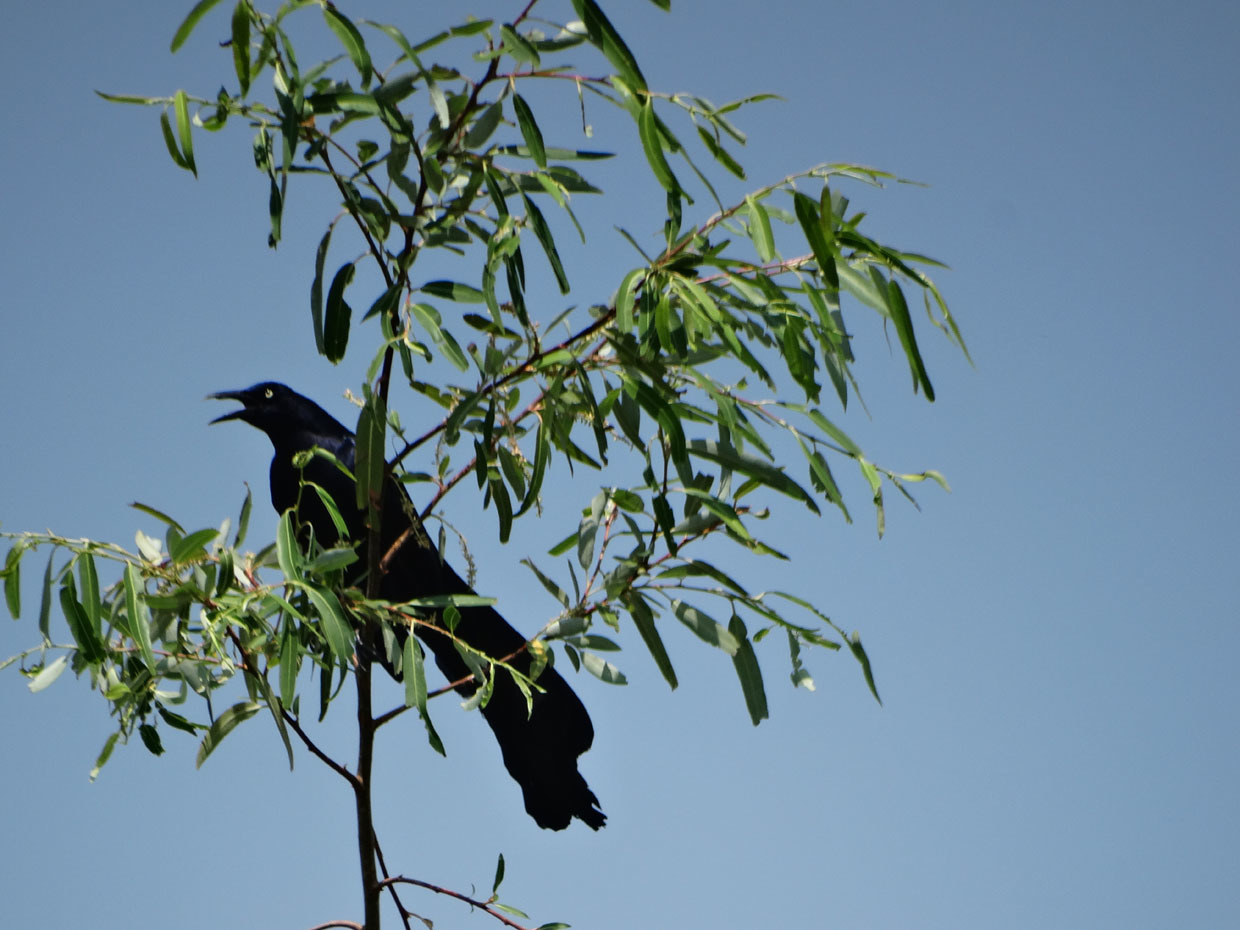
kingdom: Animalia
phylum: Chordata
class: Aves
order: Passeriformes
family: Icteridae
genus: Quiscalus
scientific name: Quiscalus mexicanus
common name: Great-tailed grackle
